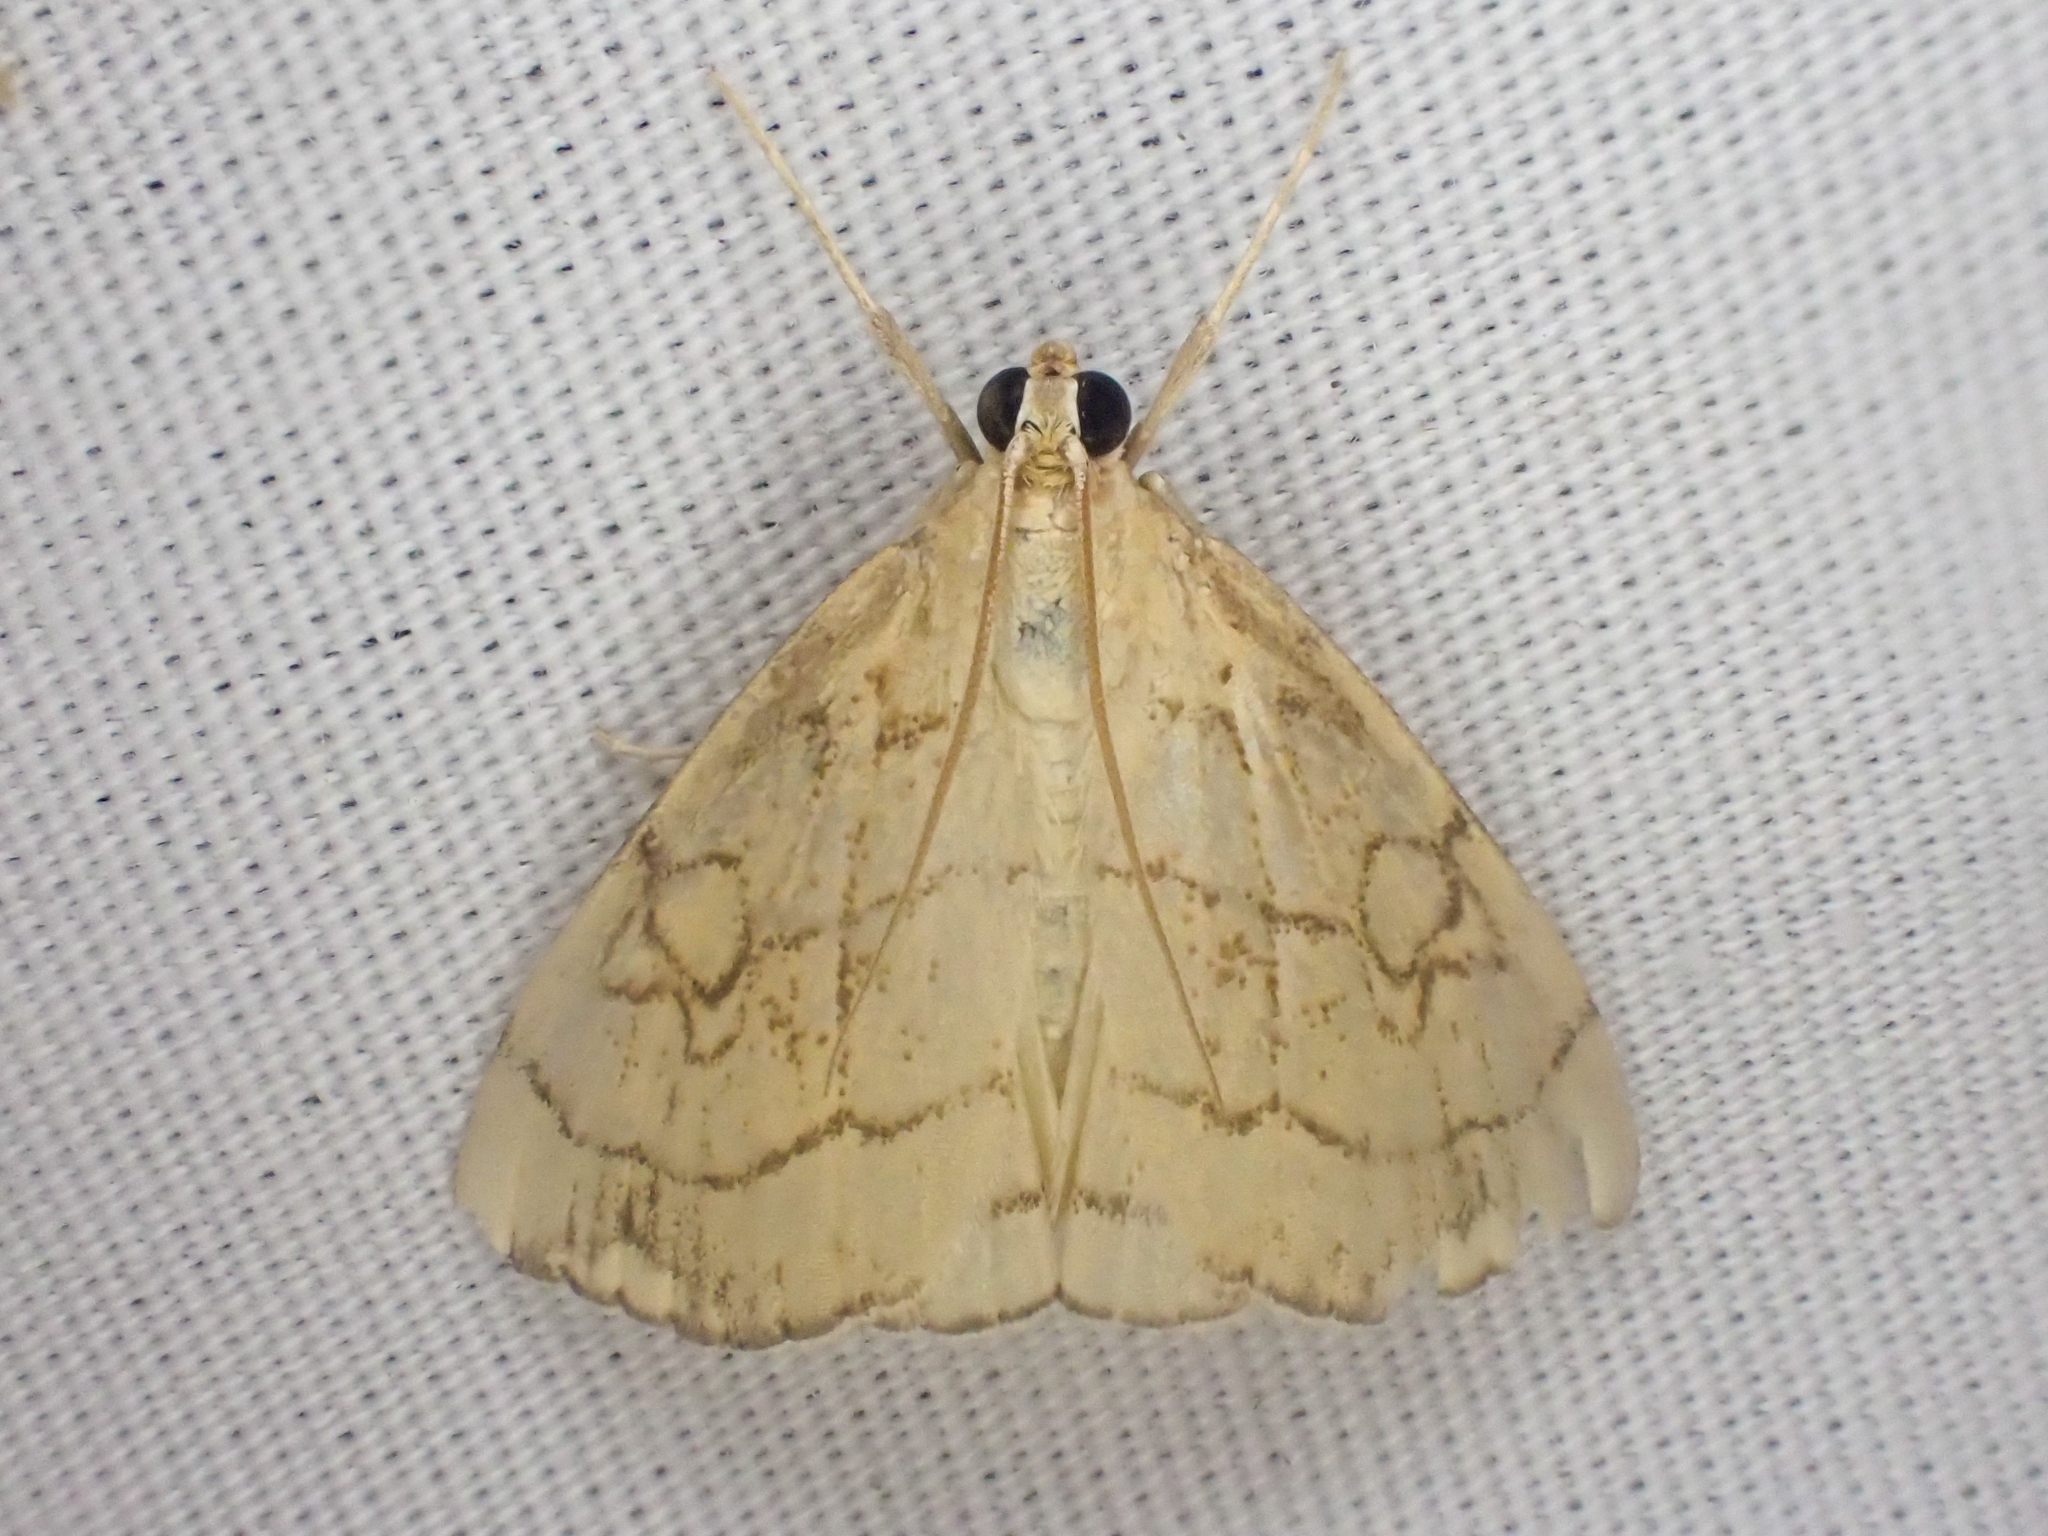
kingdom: Animalia
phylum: Arthropoda
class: Insecta
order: Lepidoptera
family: Crambidae
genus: Evergestis
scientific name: Evergestis pallidata
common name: Chequered pearl
